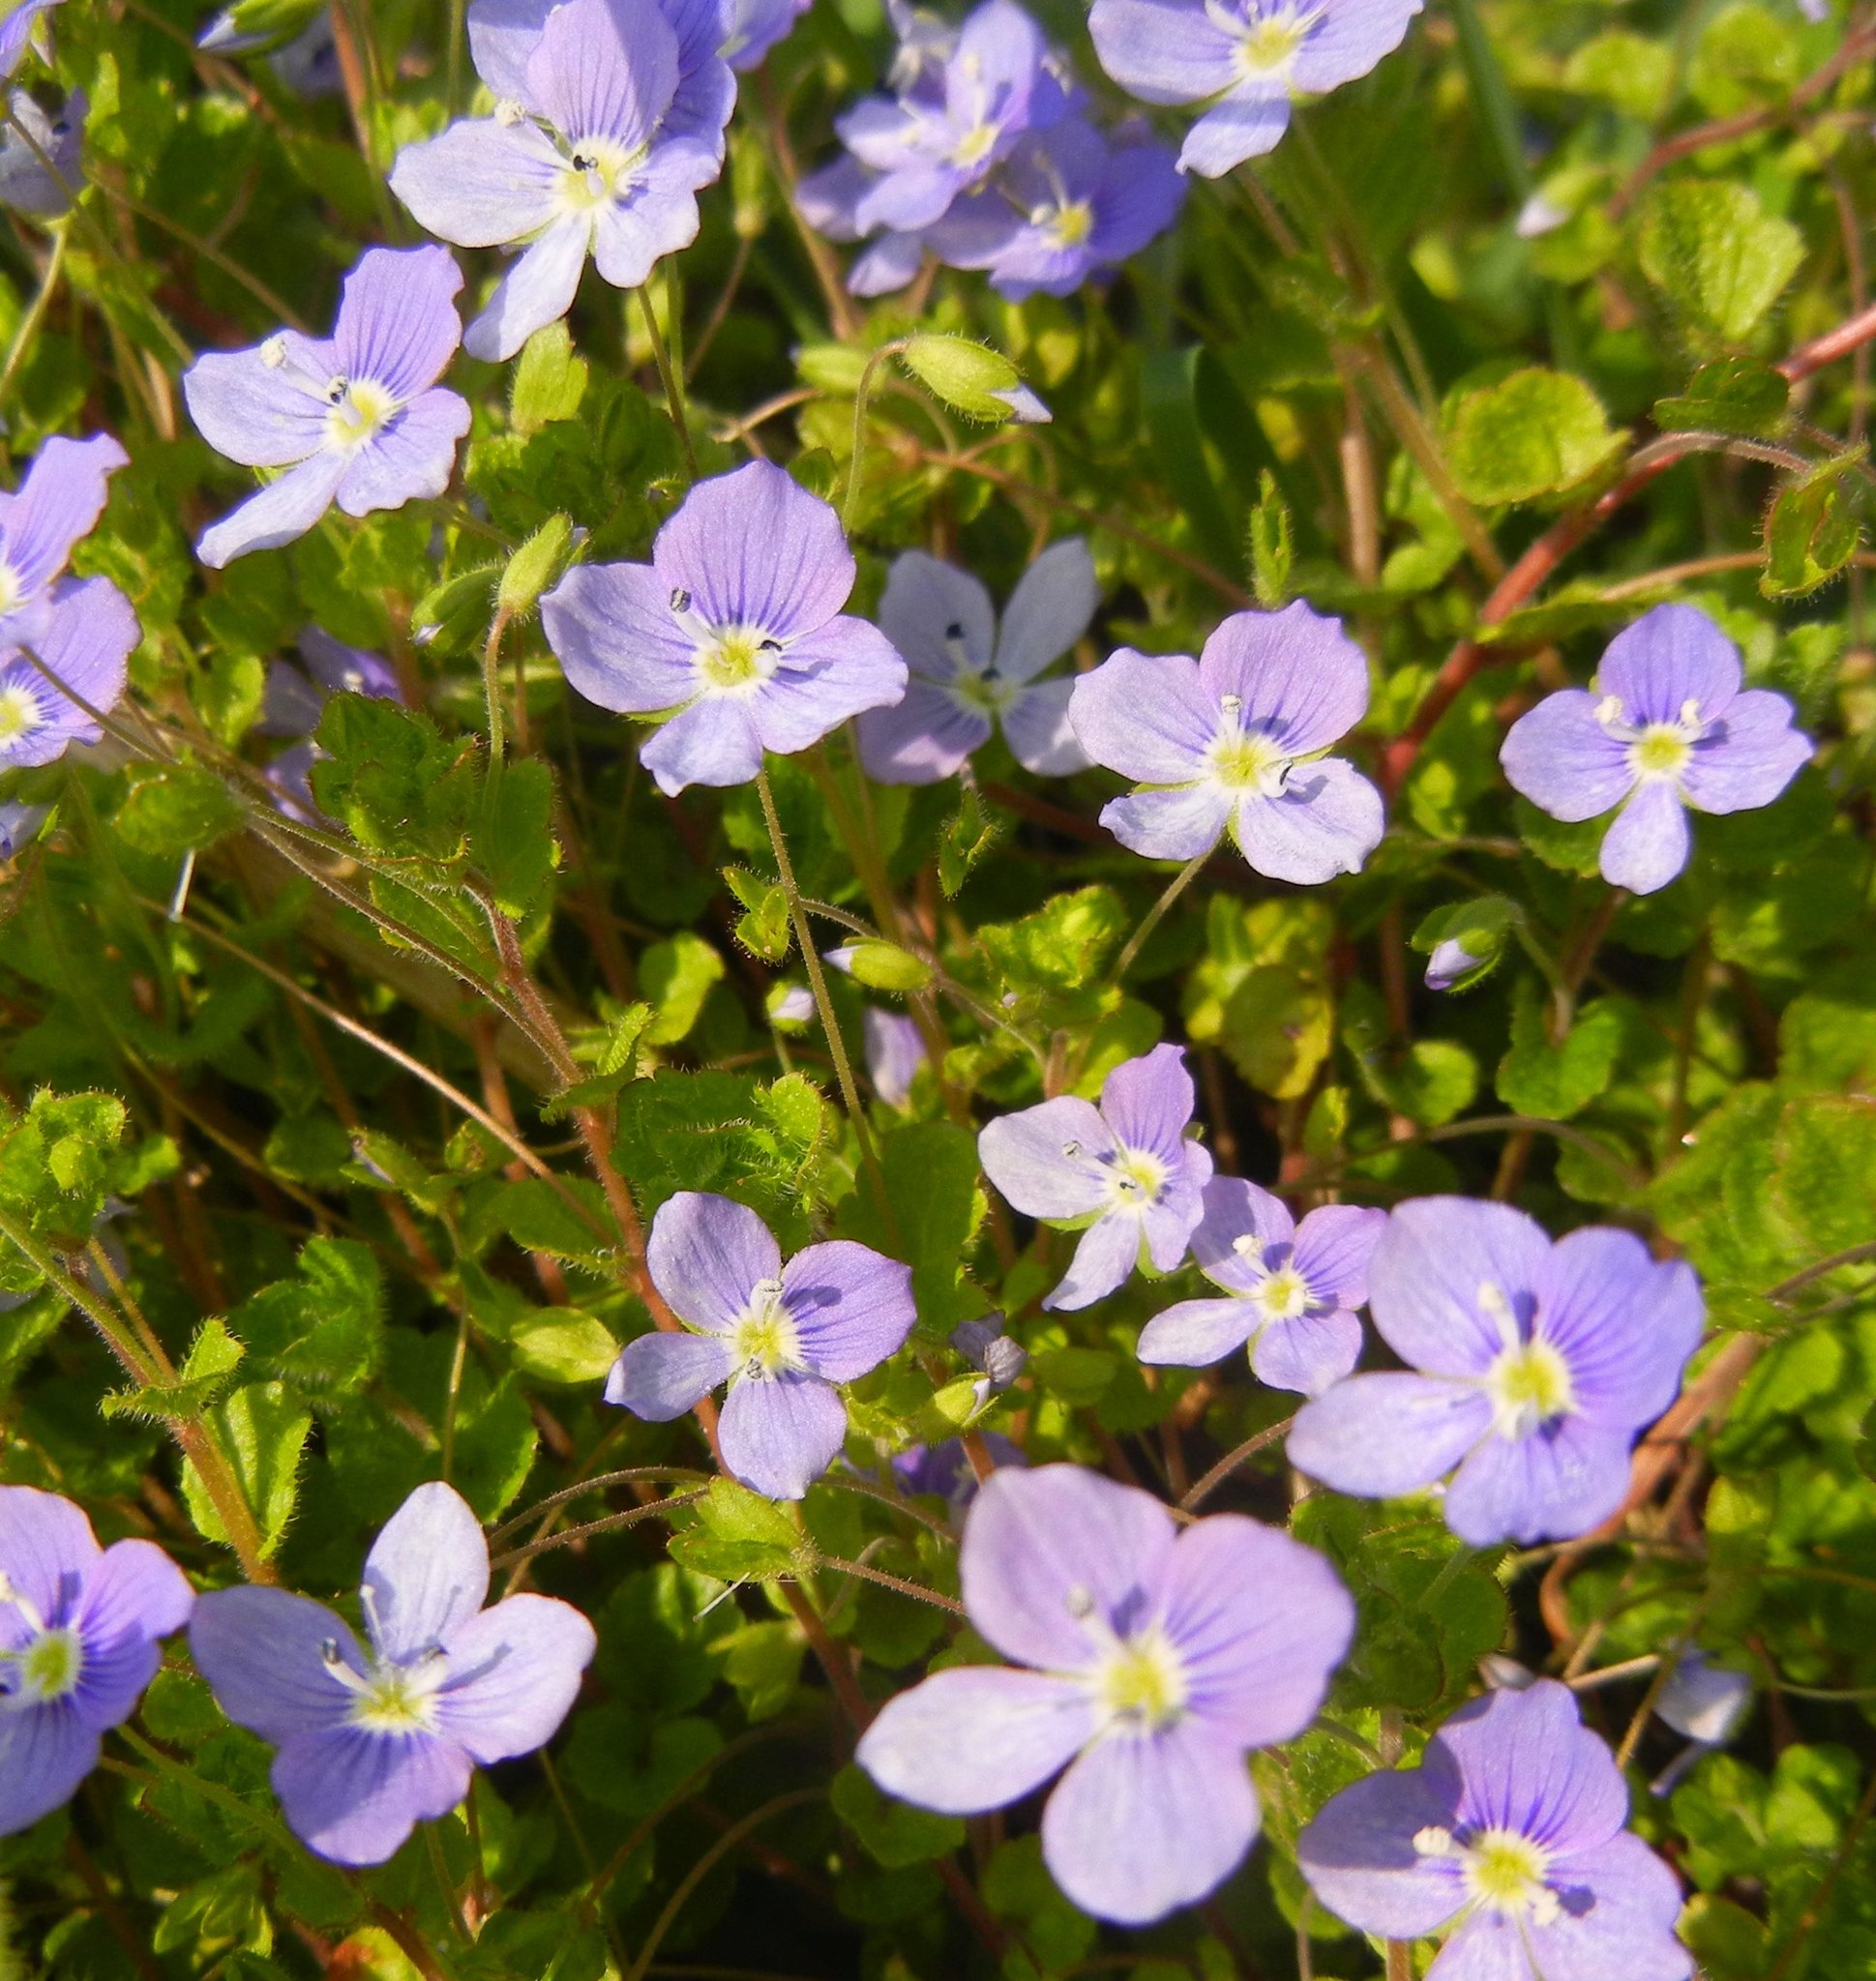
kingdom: Plantae
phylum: Tracheophyta
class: Magnoliopsida
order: Lamiales
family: Plantaginaceae
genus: Veronica
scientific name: Veronica filiformis
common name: Slender speedwell
